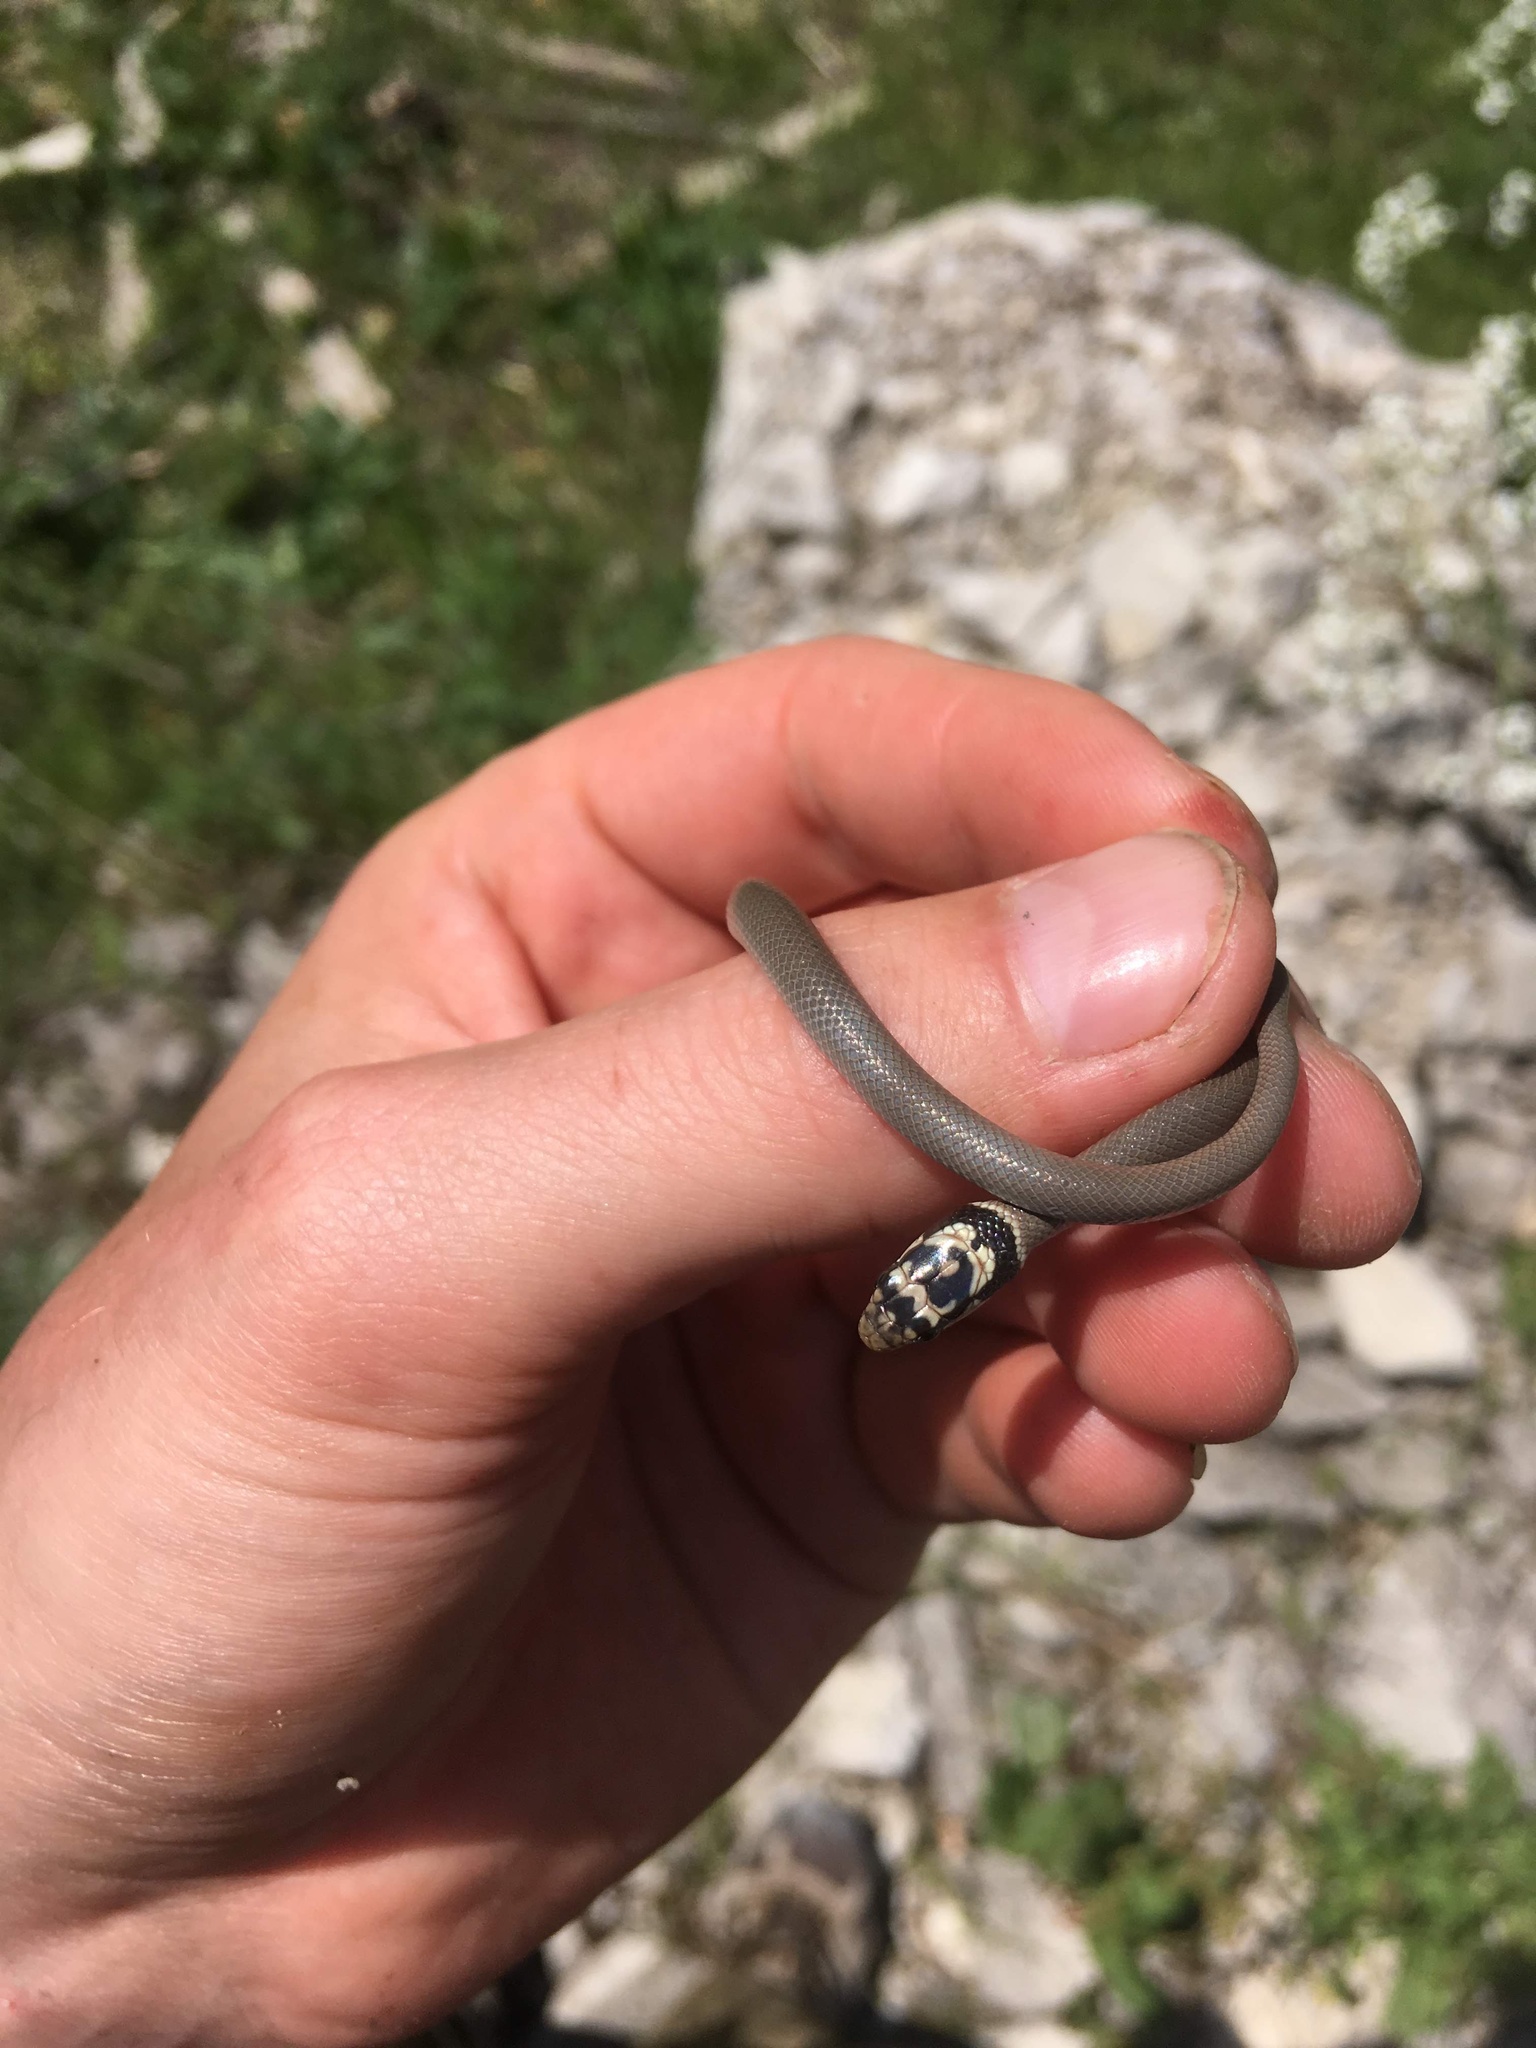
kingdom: Animalia
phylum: Chordata
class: Squamata
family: Colubridae
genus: Eirenis
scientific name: Eirenis modestus
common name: Ring-headed dwarf snake
